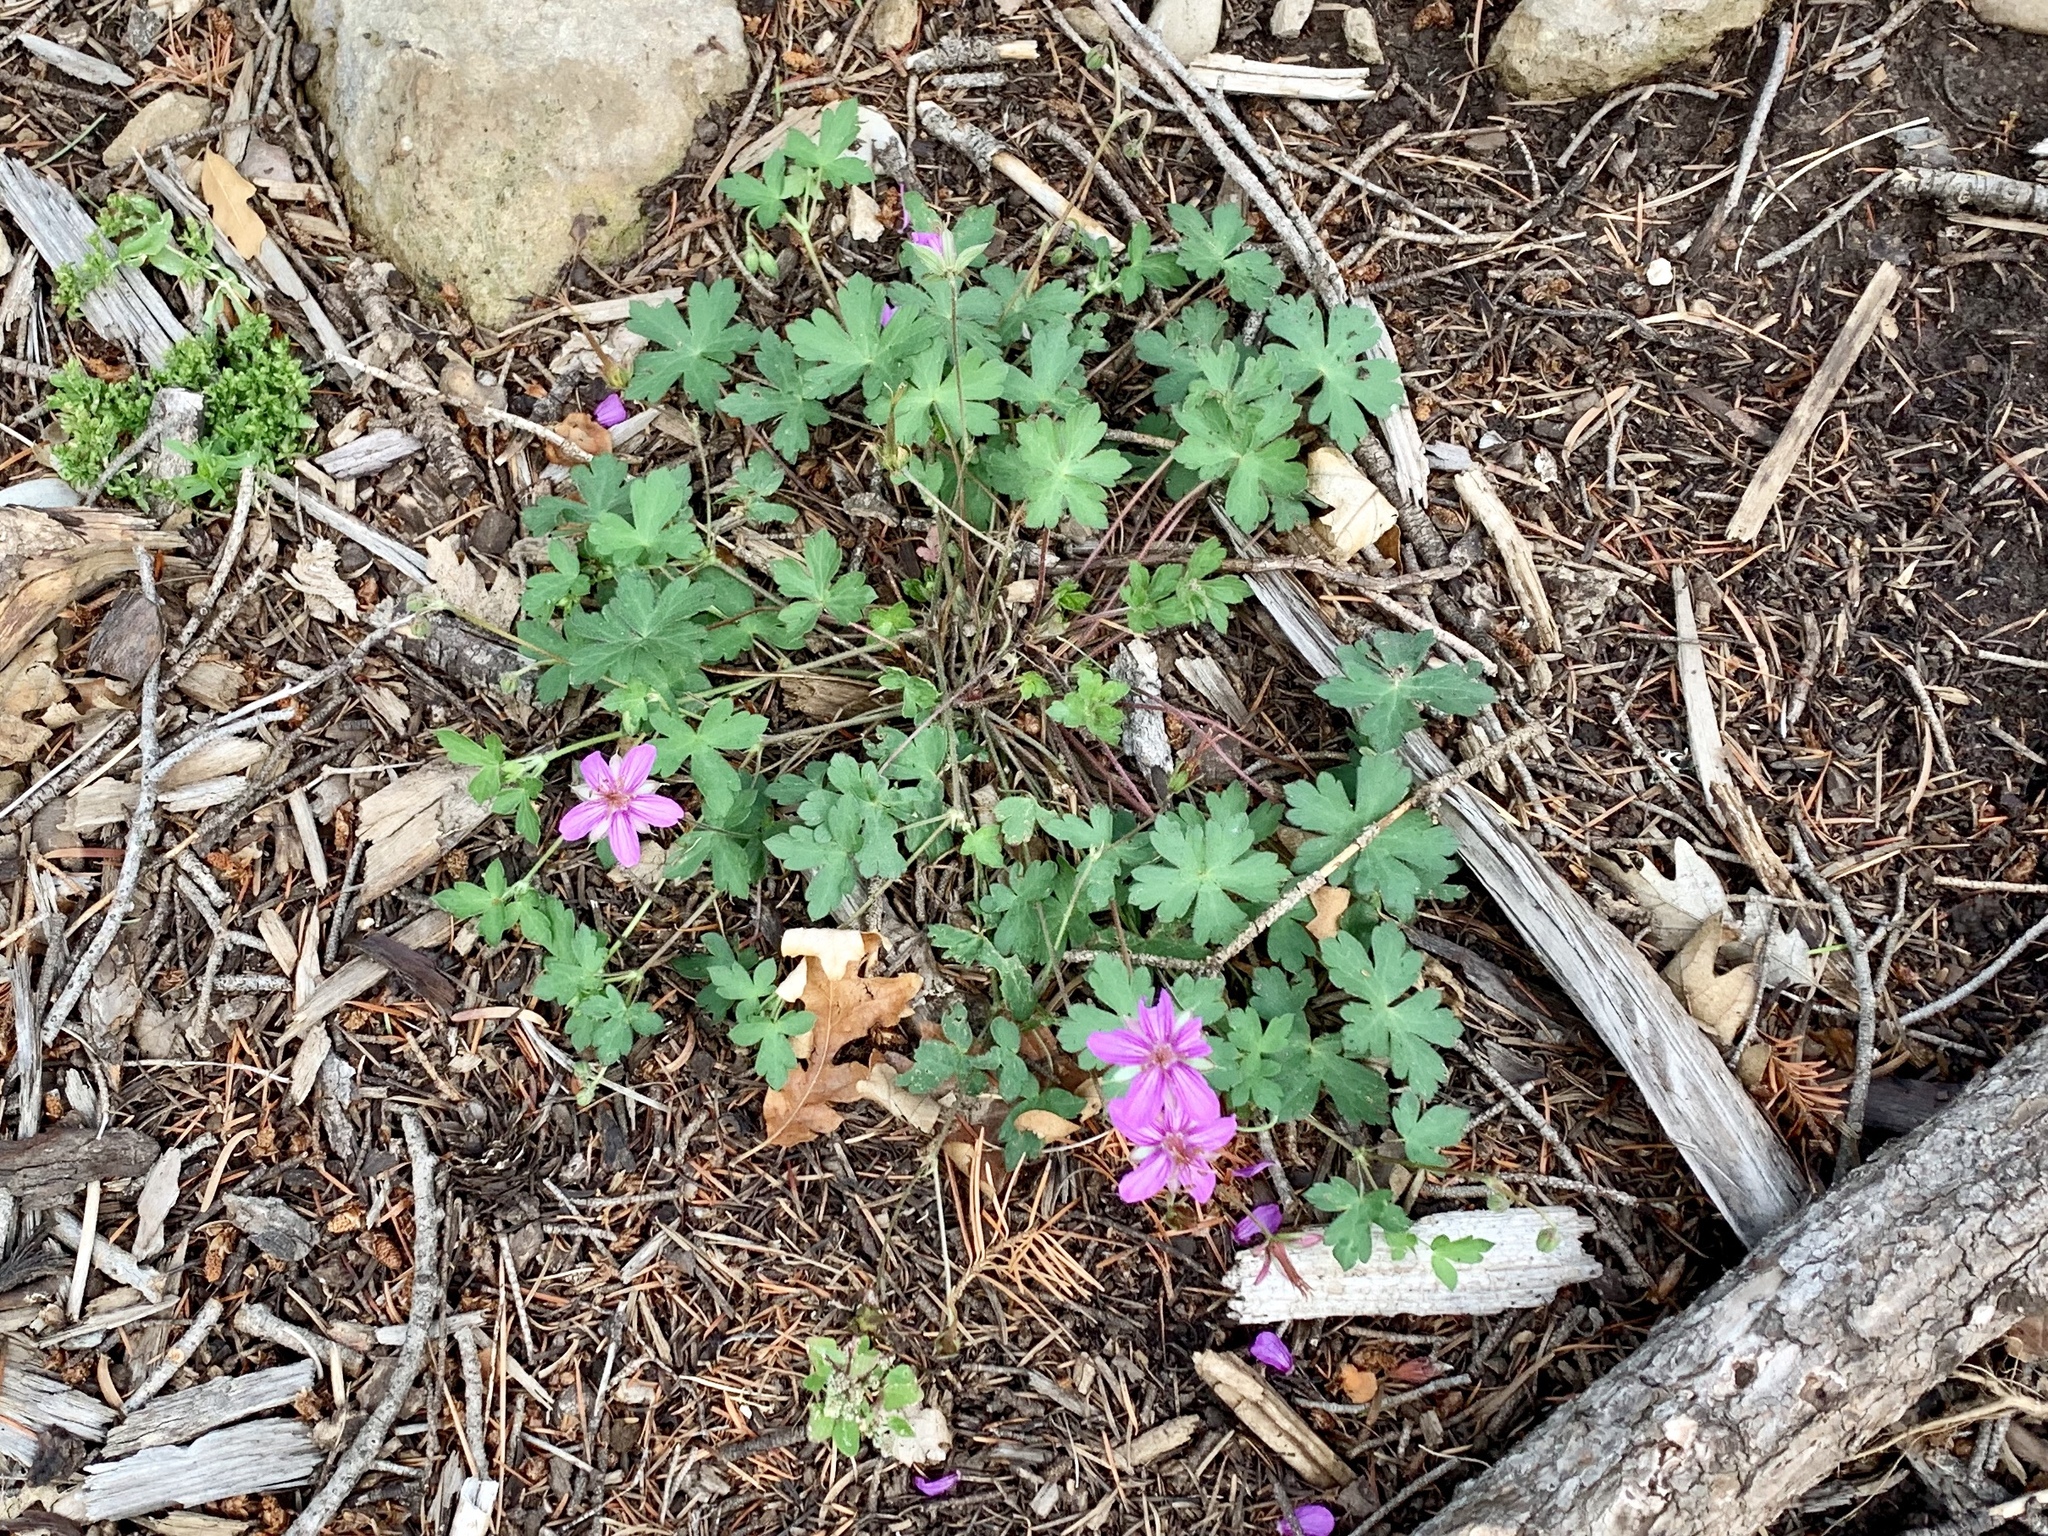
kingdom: Plantae
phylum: Tracheophyta
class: Magnoliopsida
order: Geraniales
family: Geraniaceae
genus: Geranium
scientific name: Geranium caespitosum
